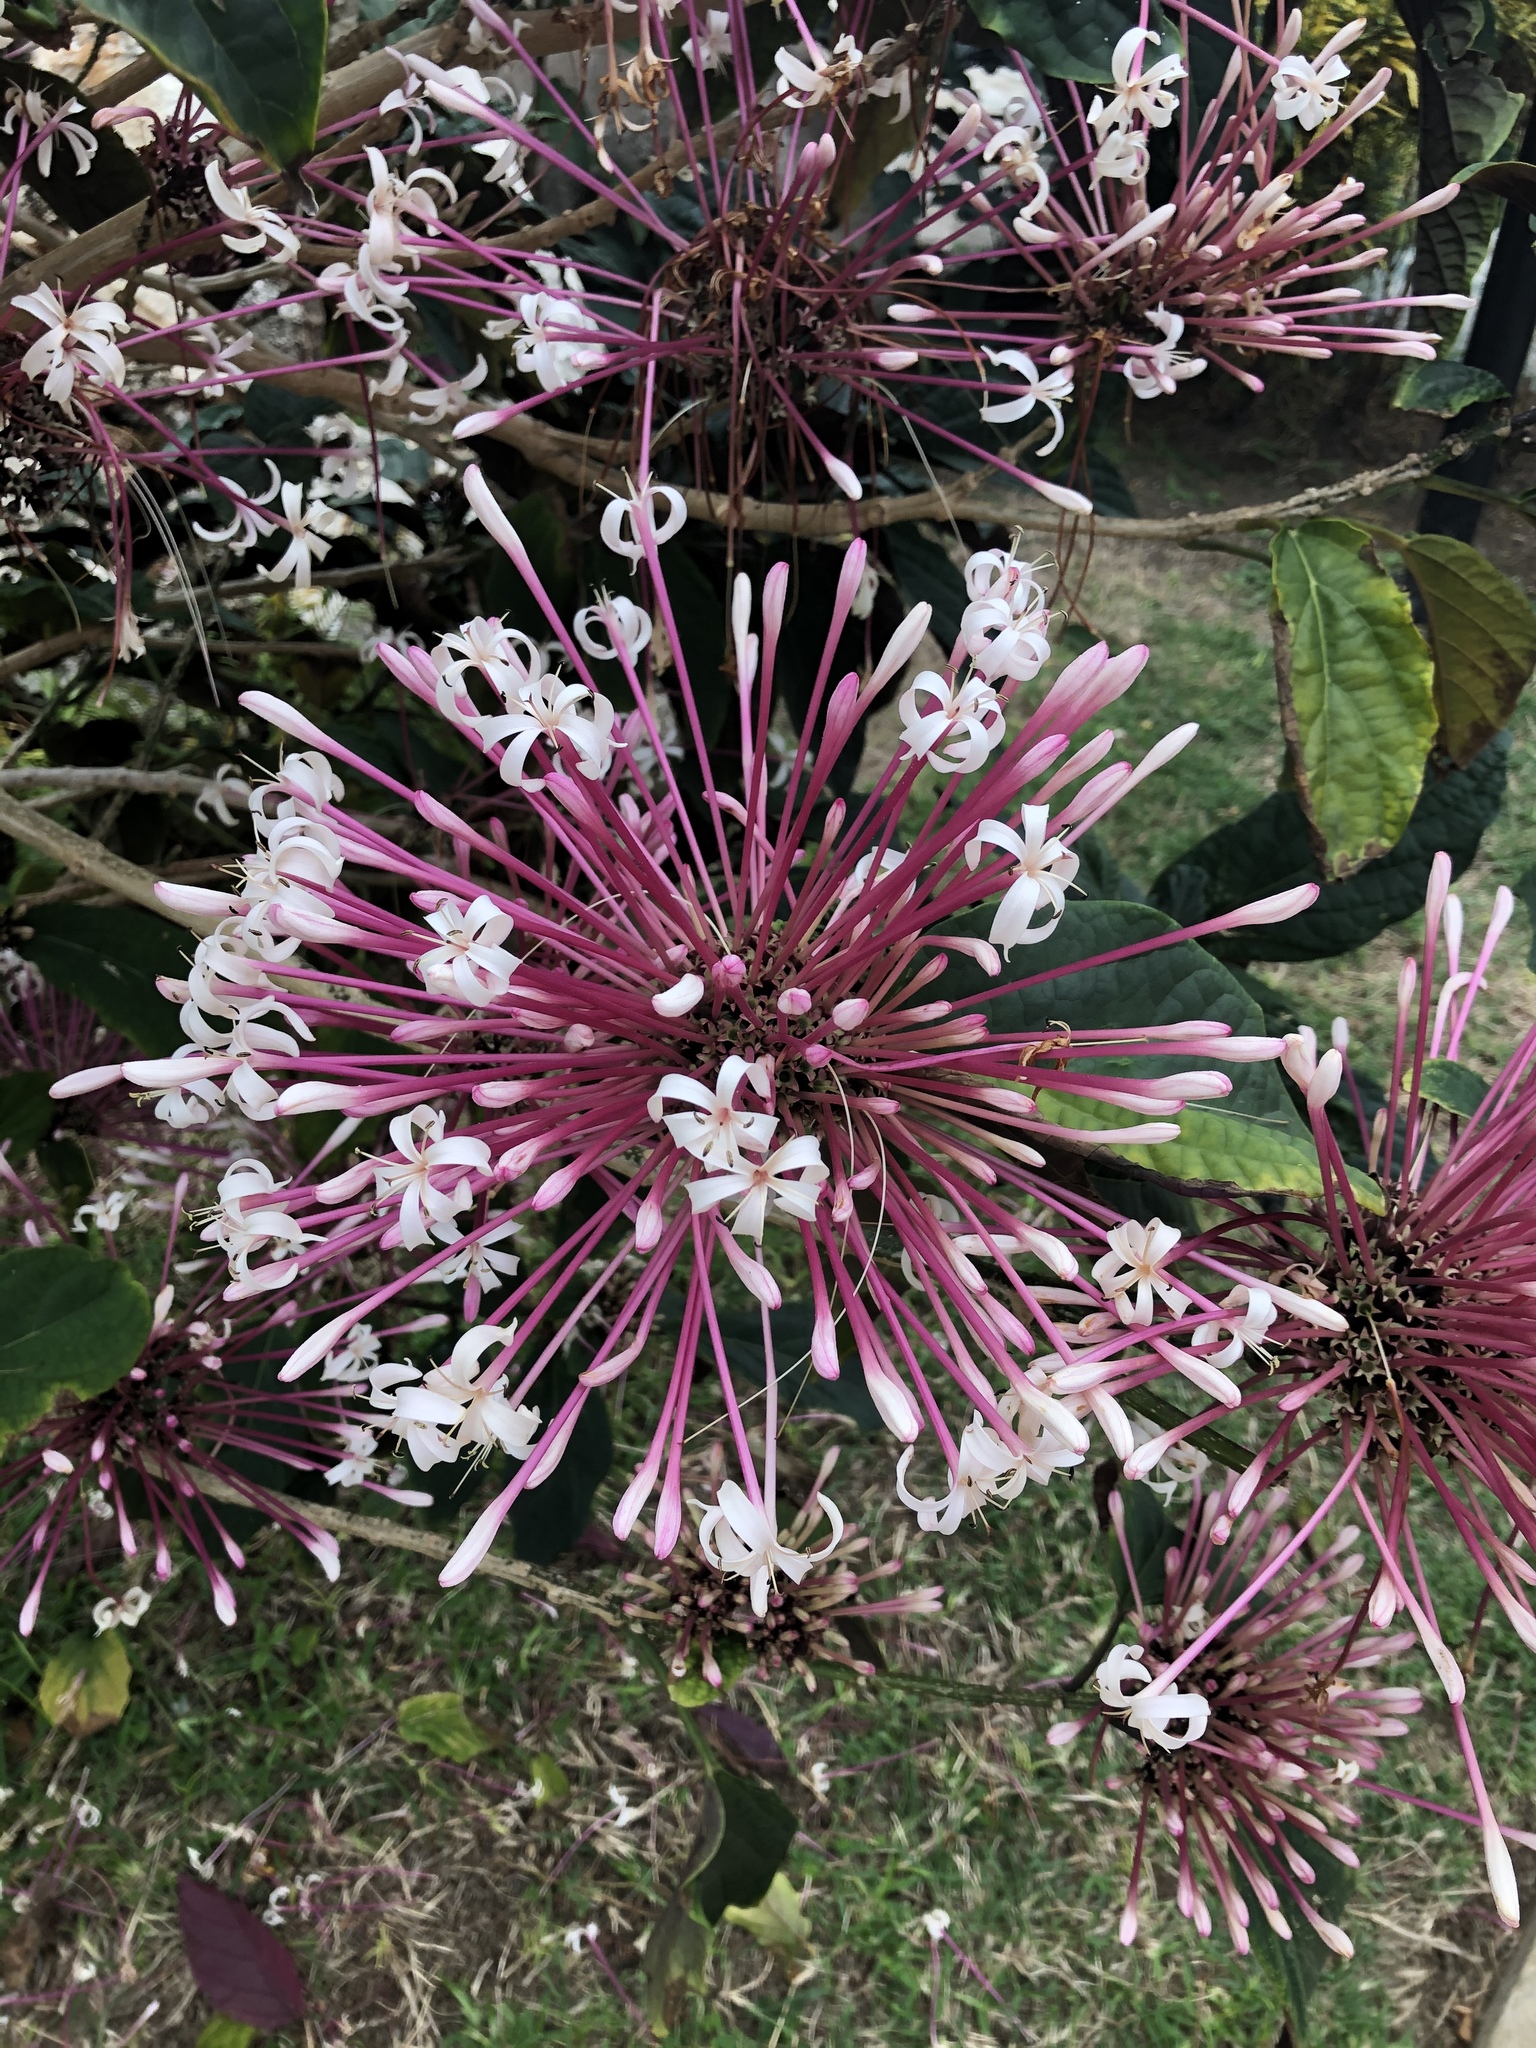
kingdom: Plantae
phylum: Tracheophyta
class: Magnoliopsida
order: Lamiales
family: Lamiaceae
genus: Clerodendrum
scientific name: Clerodendrum quadriloculare
